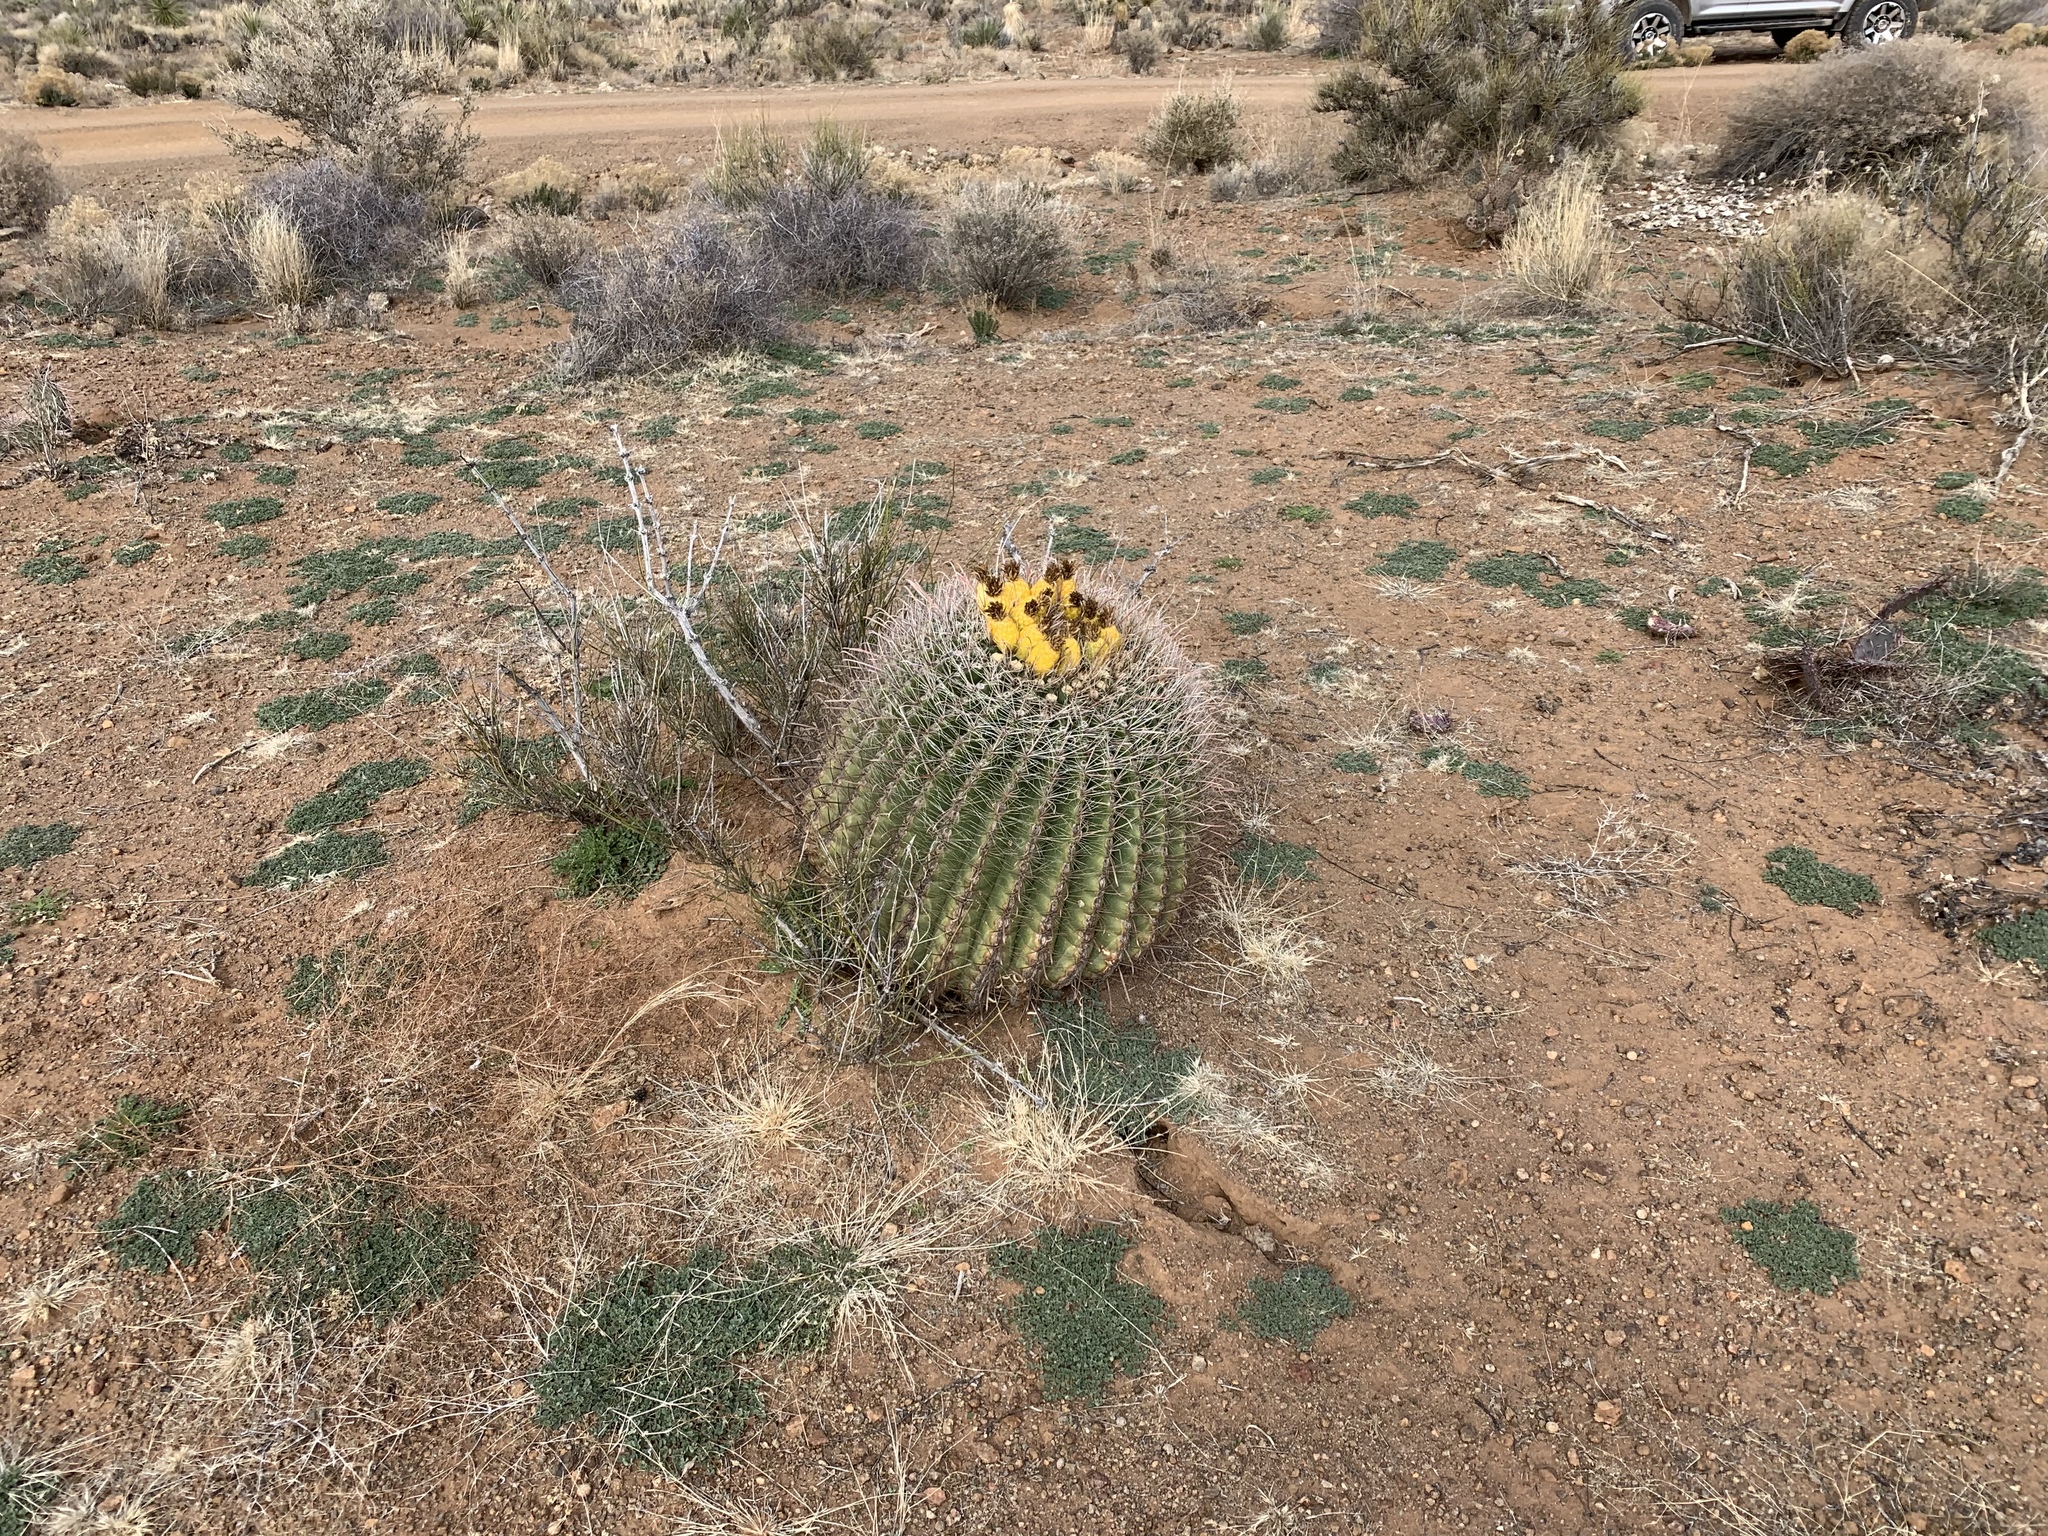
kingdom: Plantae
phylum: Tracheophyta
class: Magnoliopsida
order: Caryophyllales
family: Cactaceae
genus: Ferocactus
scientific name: Ferocactus wislizeni
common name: Candy barrel cactus
